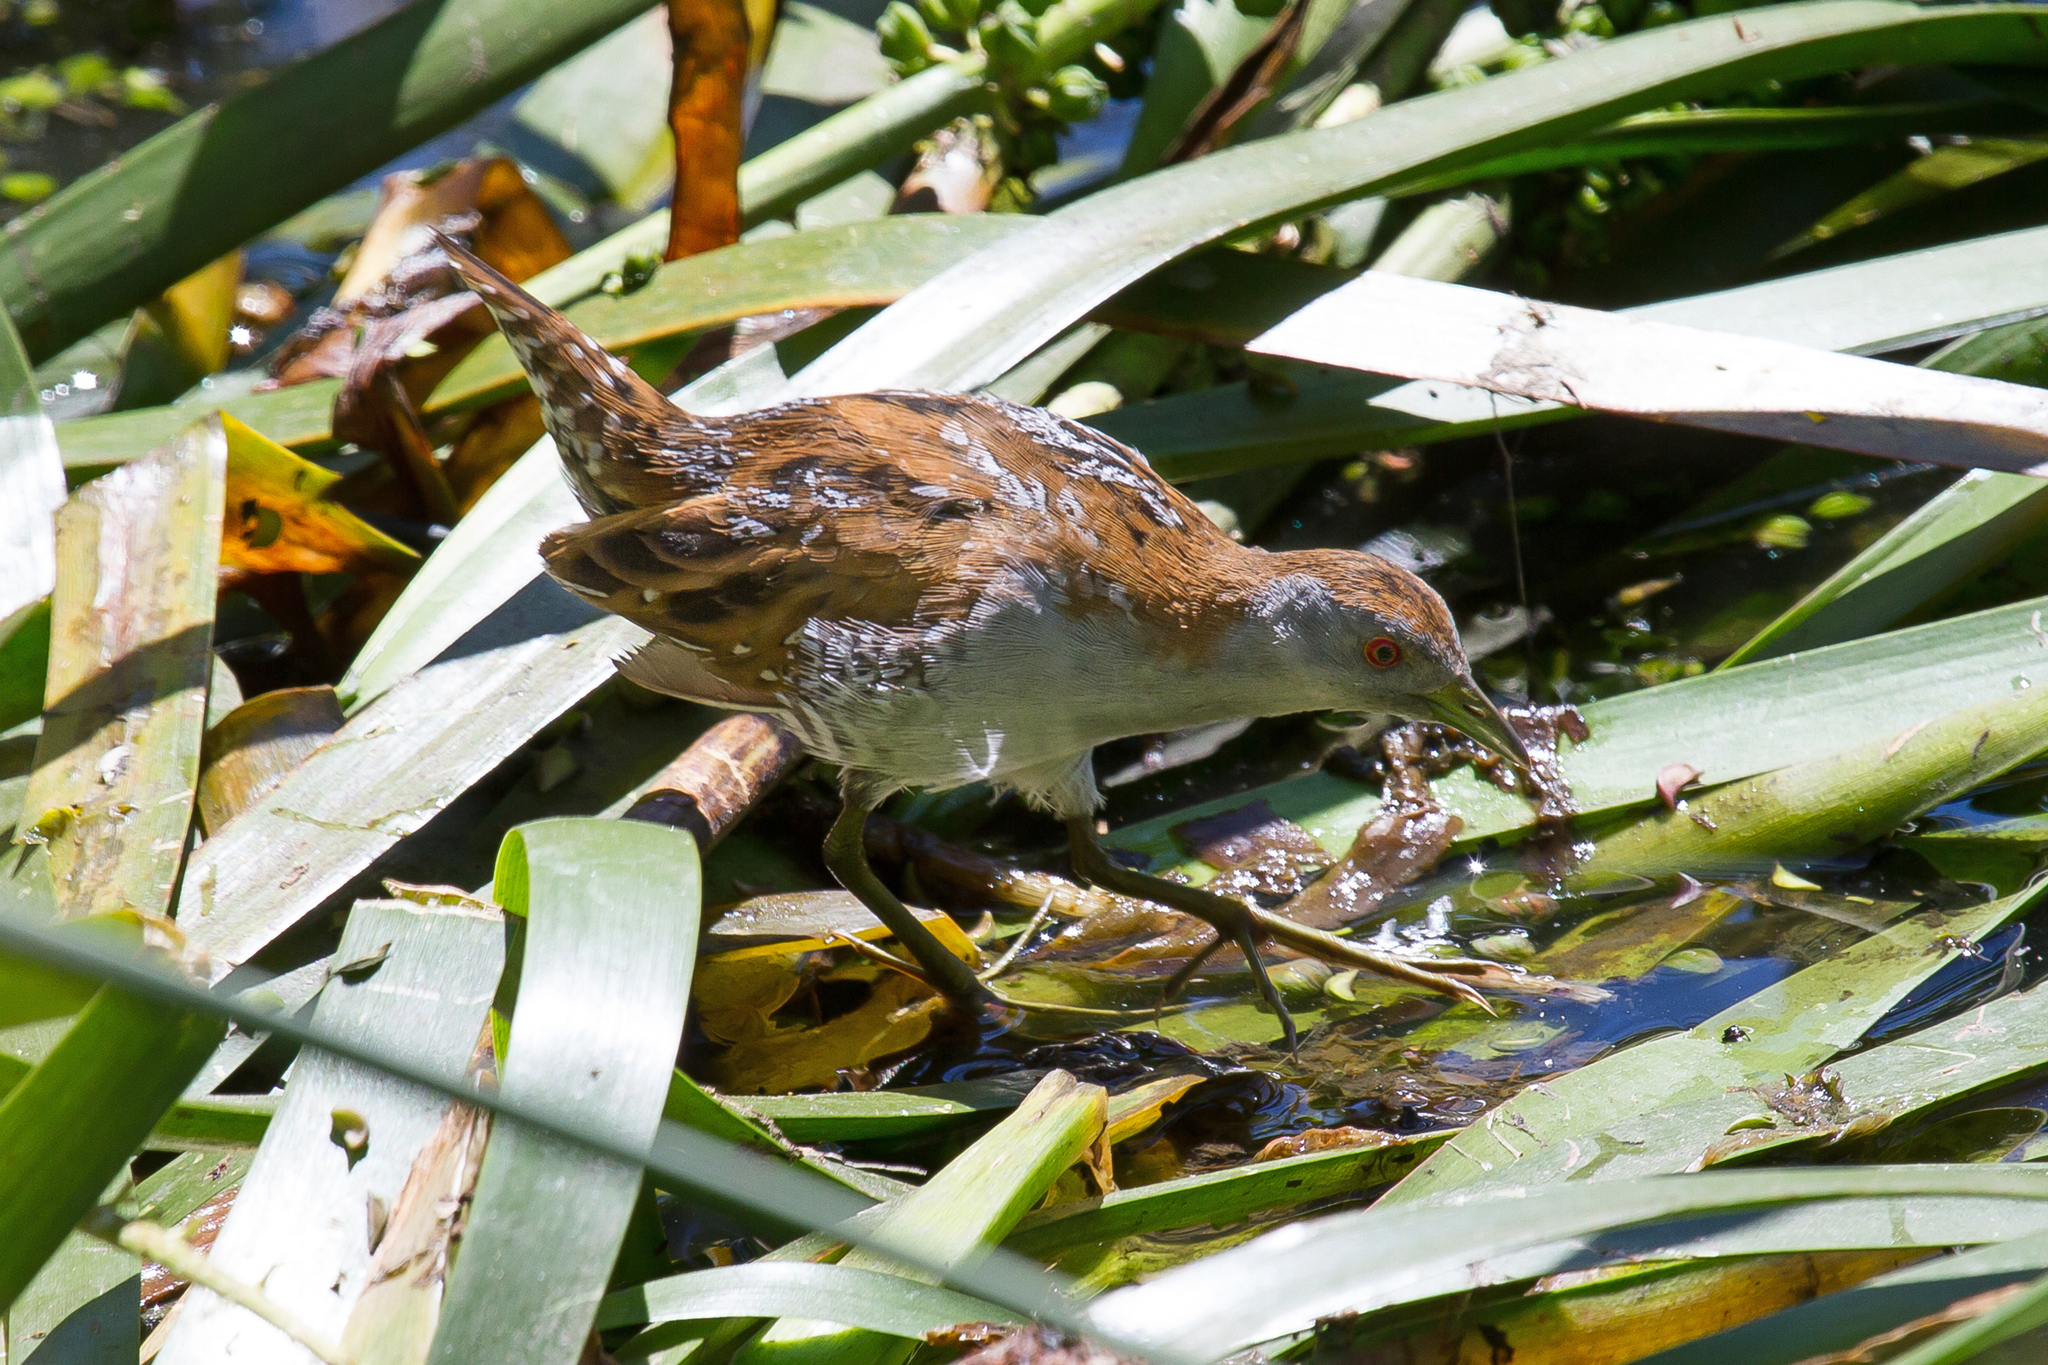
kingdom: Animalia
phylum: Chordata
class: Aves
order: Gruiformes
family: Rallidae
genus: Porzana
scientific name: Porzana pusilla
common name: Baillon's crake
